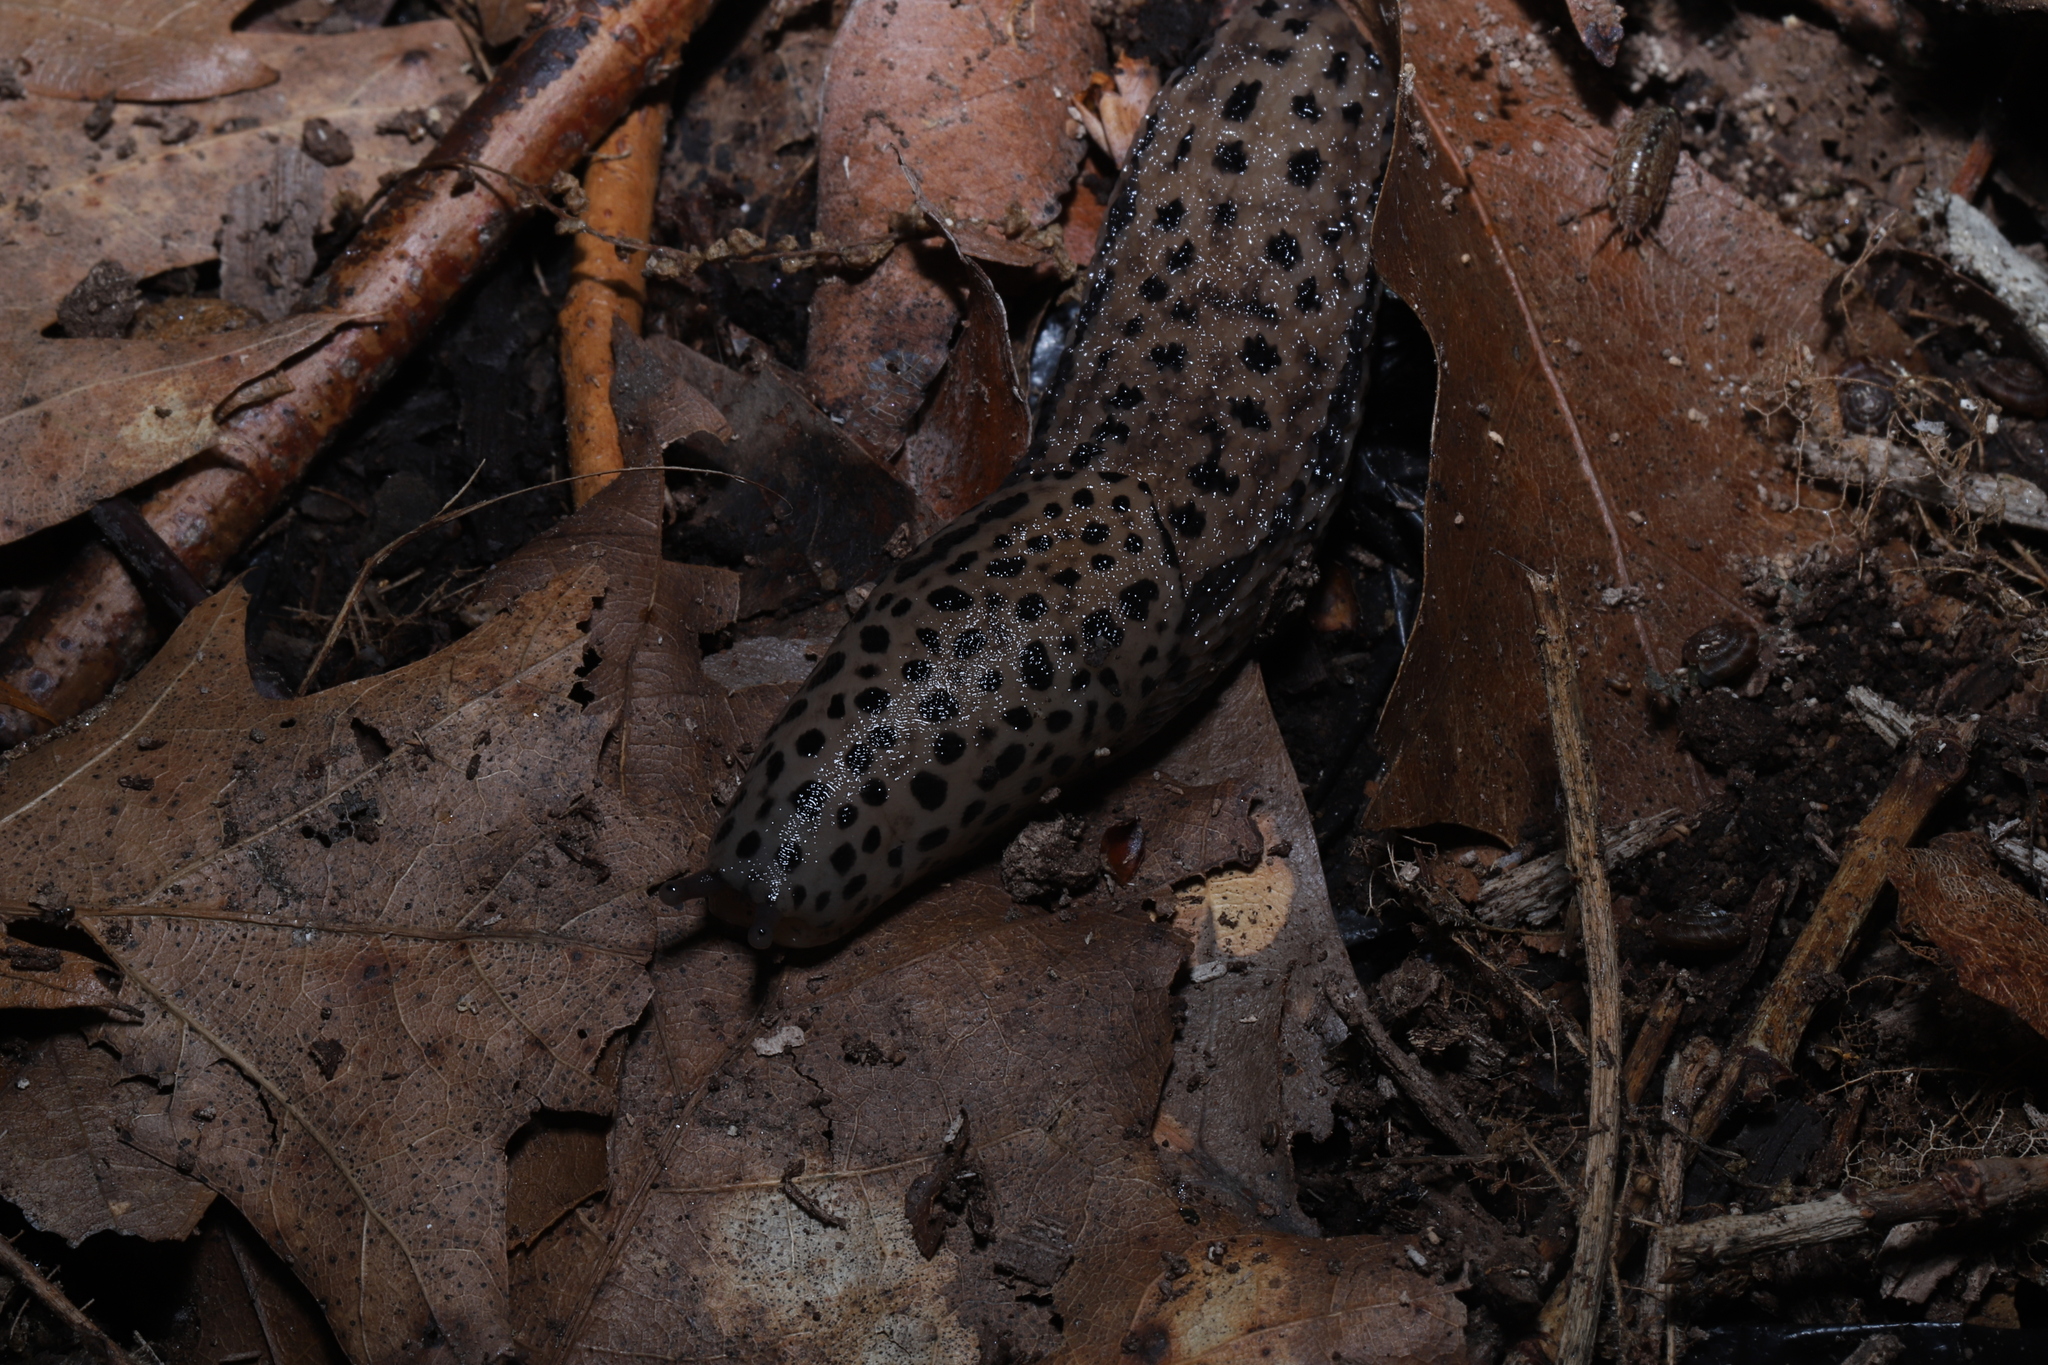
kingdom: Animalia
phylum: Mollusca
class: Gastropoda
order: Stylommatophora
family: Limacidae
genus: Limax
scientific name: Limax maximus
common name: Great grey slug
